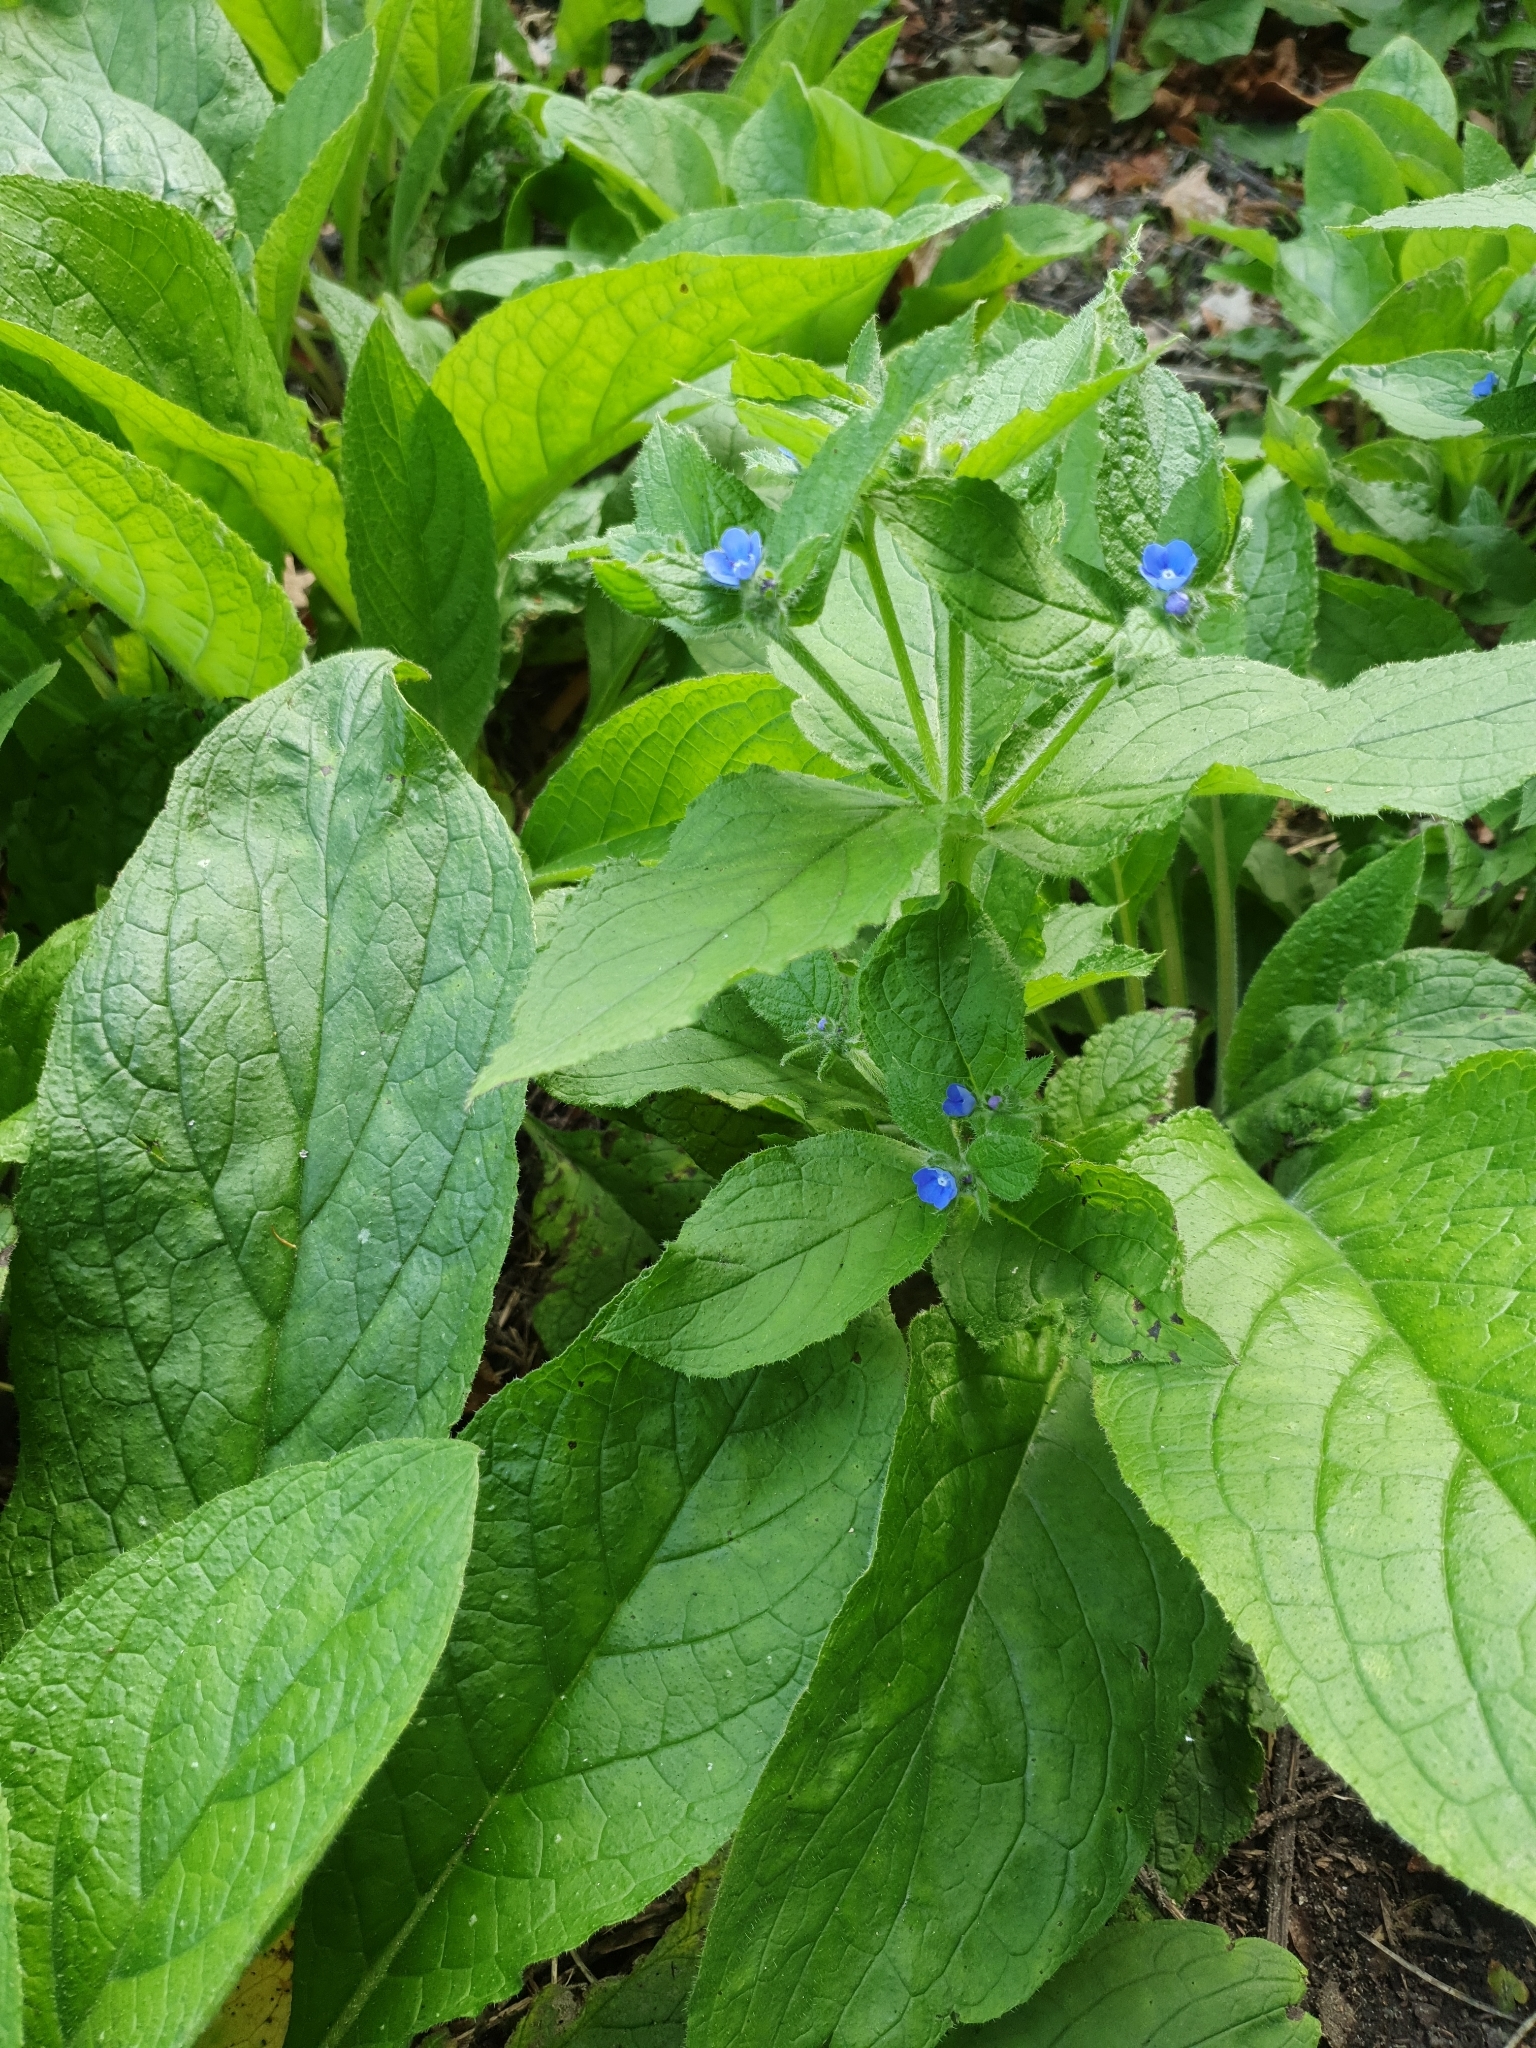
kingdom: Plantae
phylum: Tracheophyta
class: Magnoliopsida
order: Boraginales
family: Boraginaceae
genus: Pentaglottis
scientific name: Pentaglottis sempervirens
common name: Green alkanet
